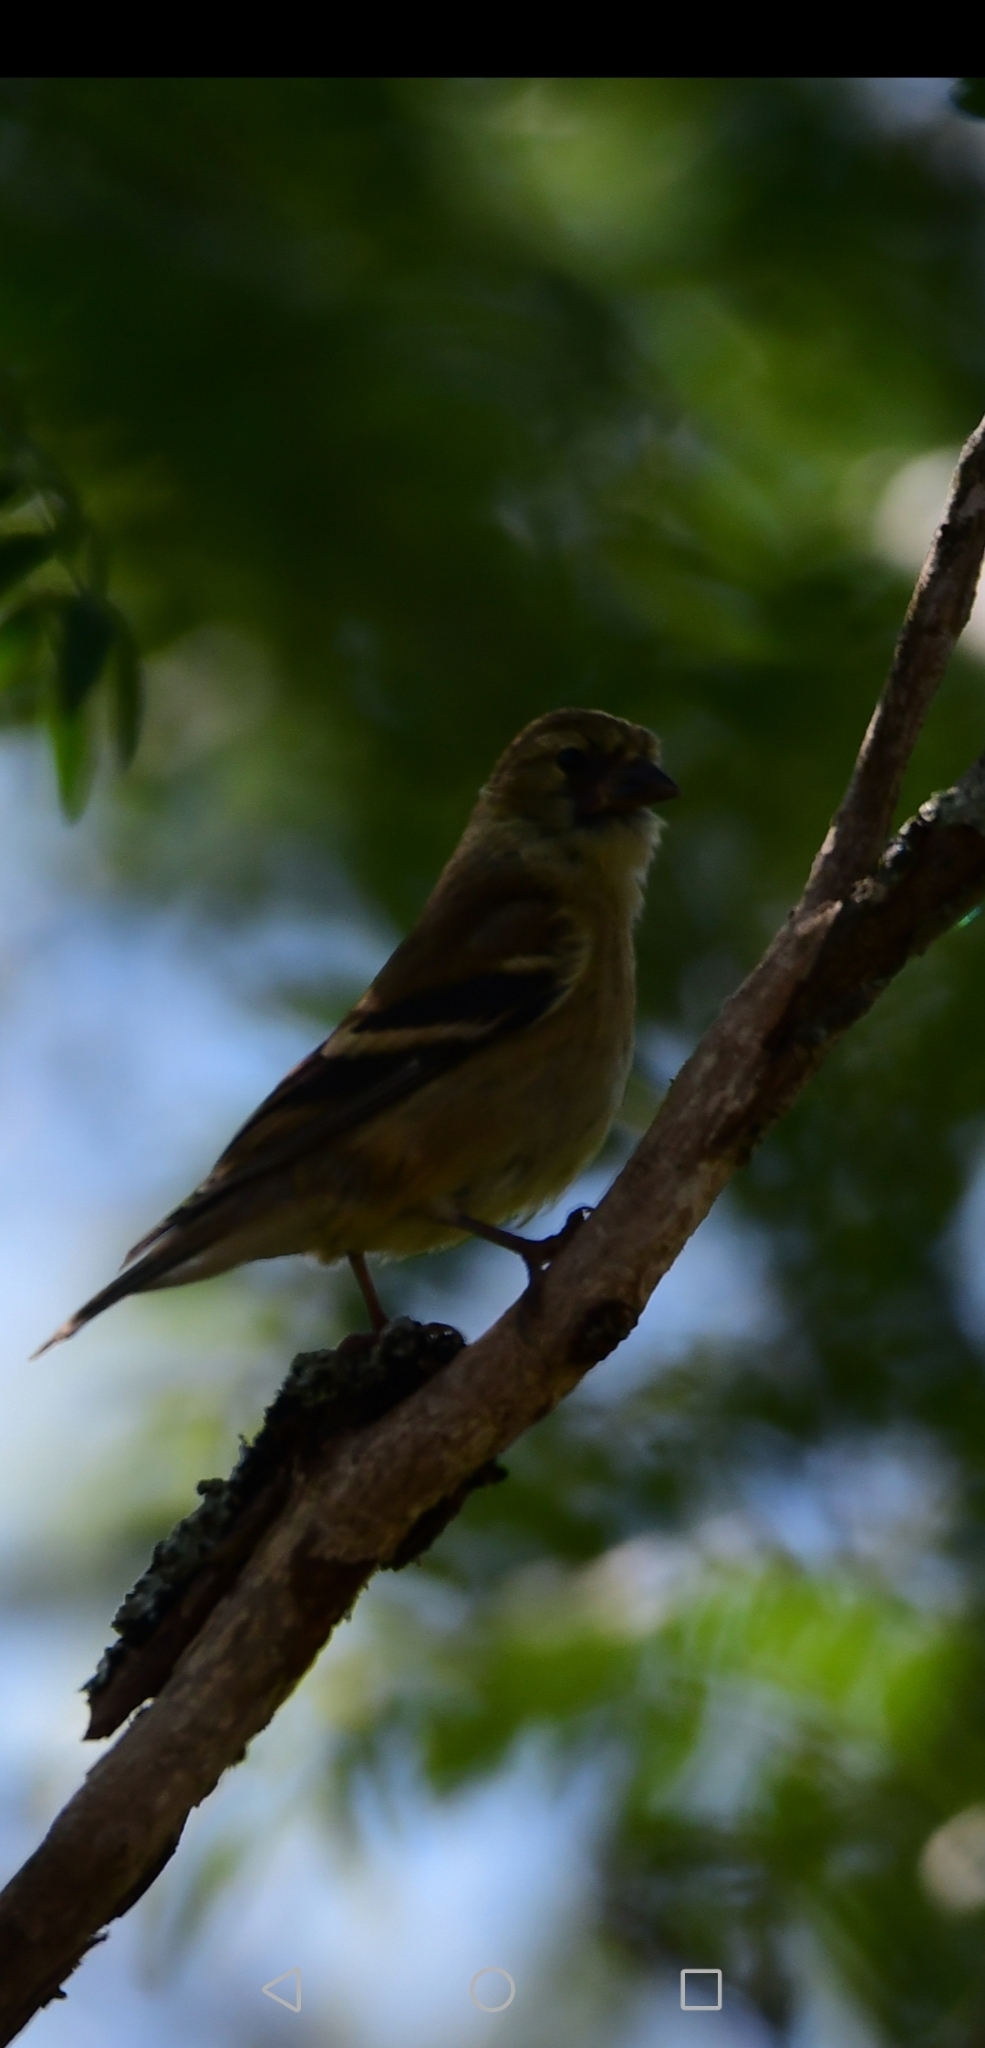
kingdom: Animalia
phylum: Chordata
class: Aves
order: Passeriformes
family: Fringillidae
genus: Spinus
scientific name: Spinus tristis
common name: American goldfinch
